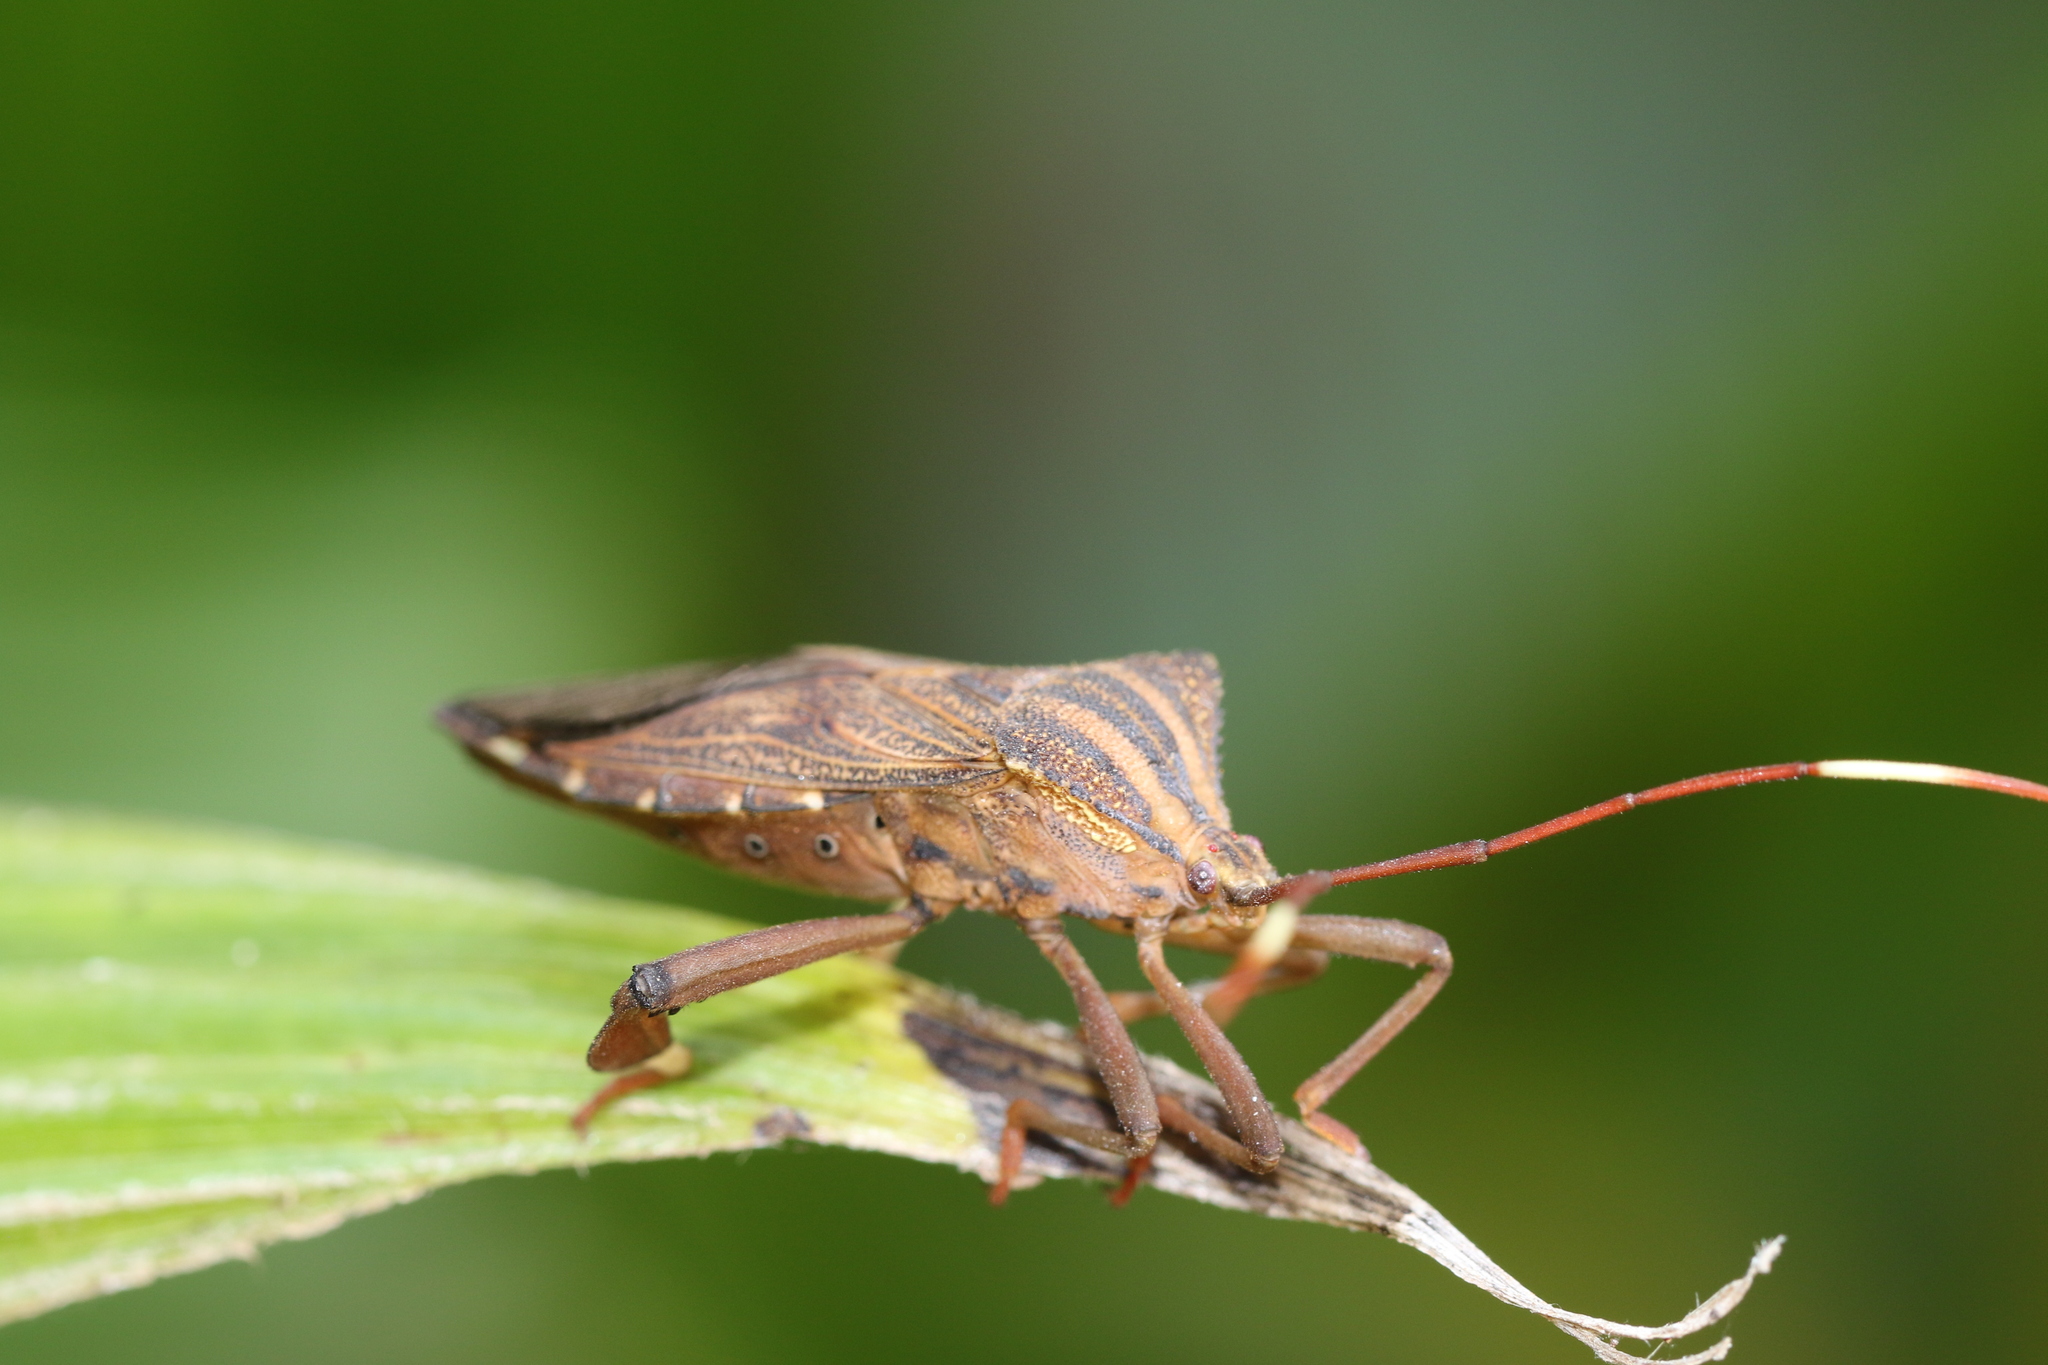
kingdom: Animalia
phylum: Arthropoda
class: Insecta
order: Hemiptera
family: Coreidae
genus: Melucha
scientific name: Melucha phyllocnemis
